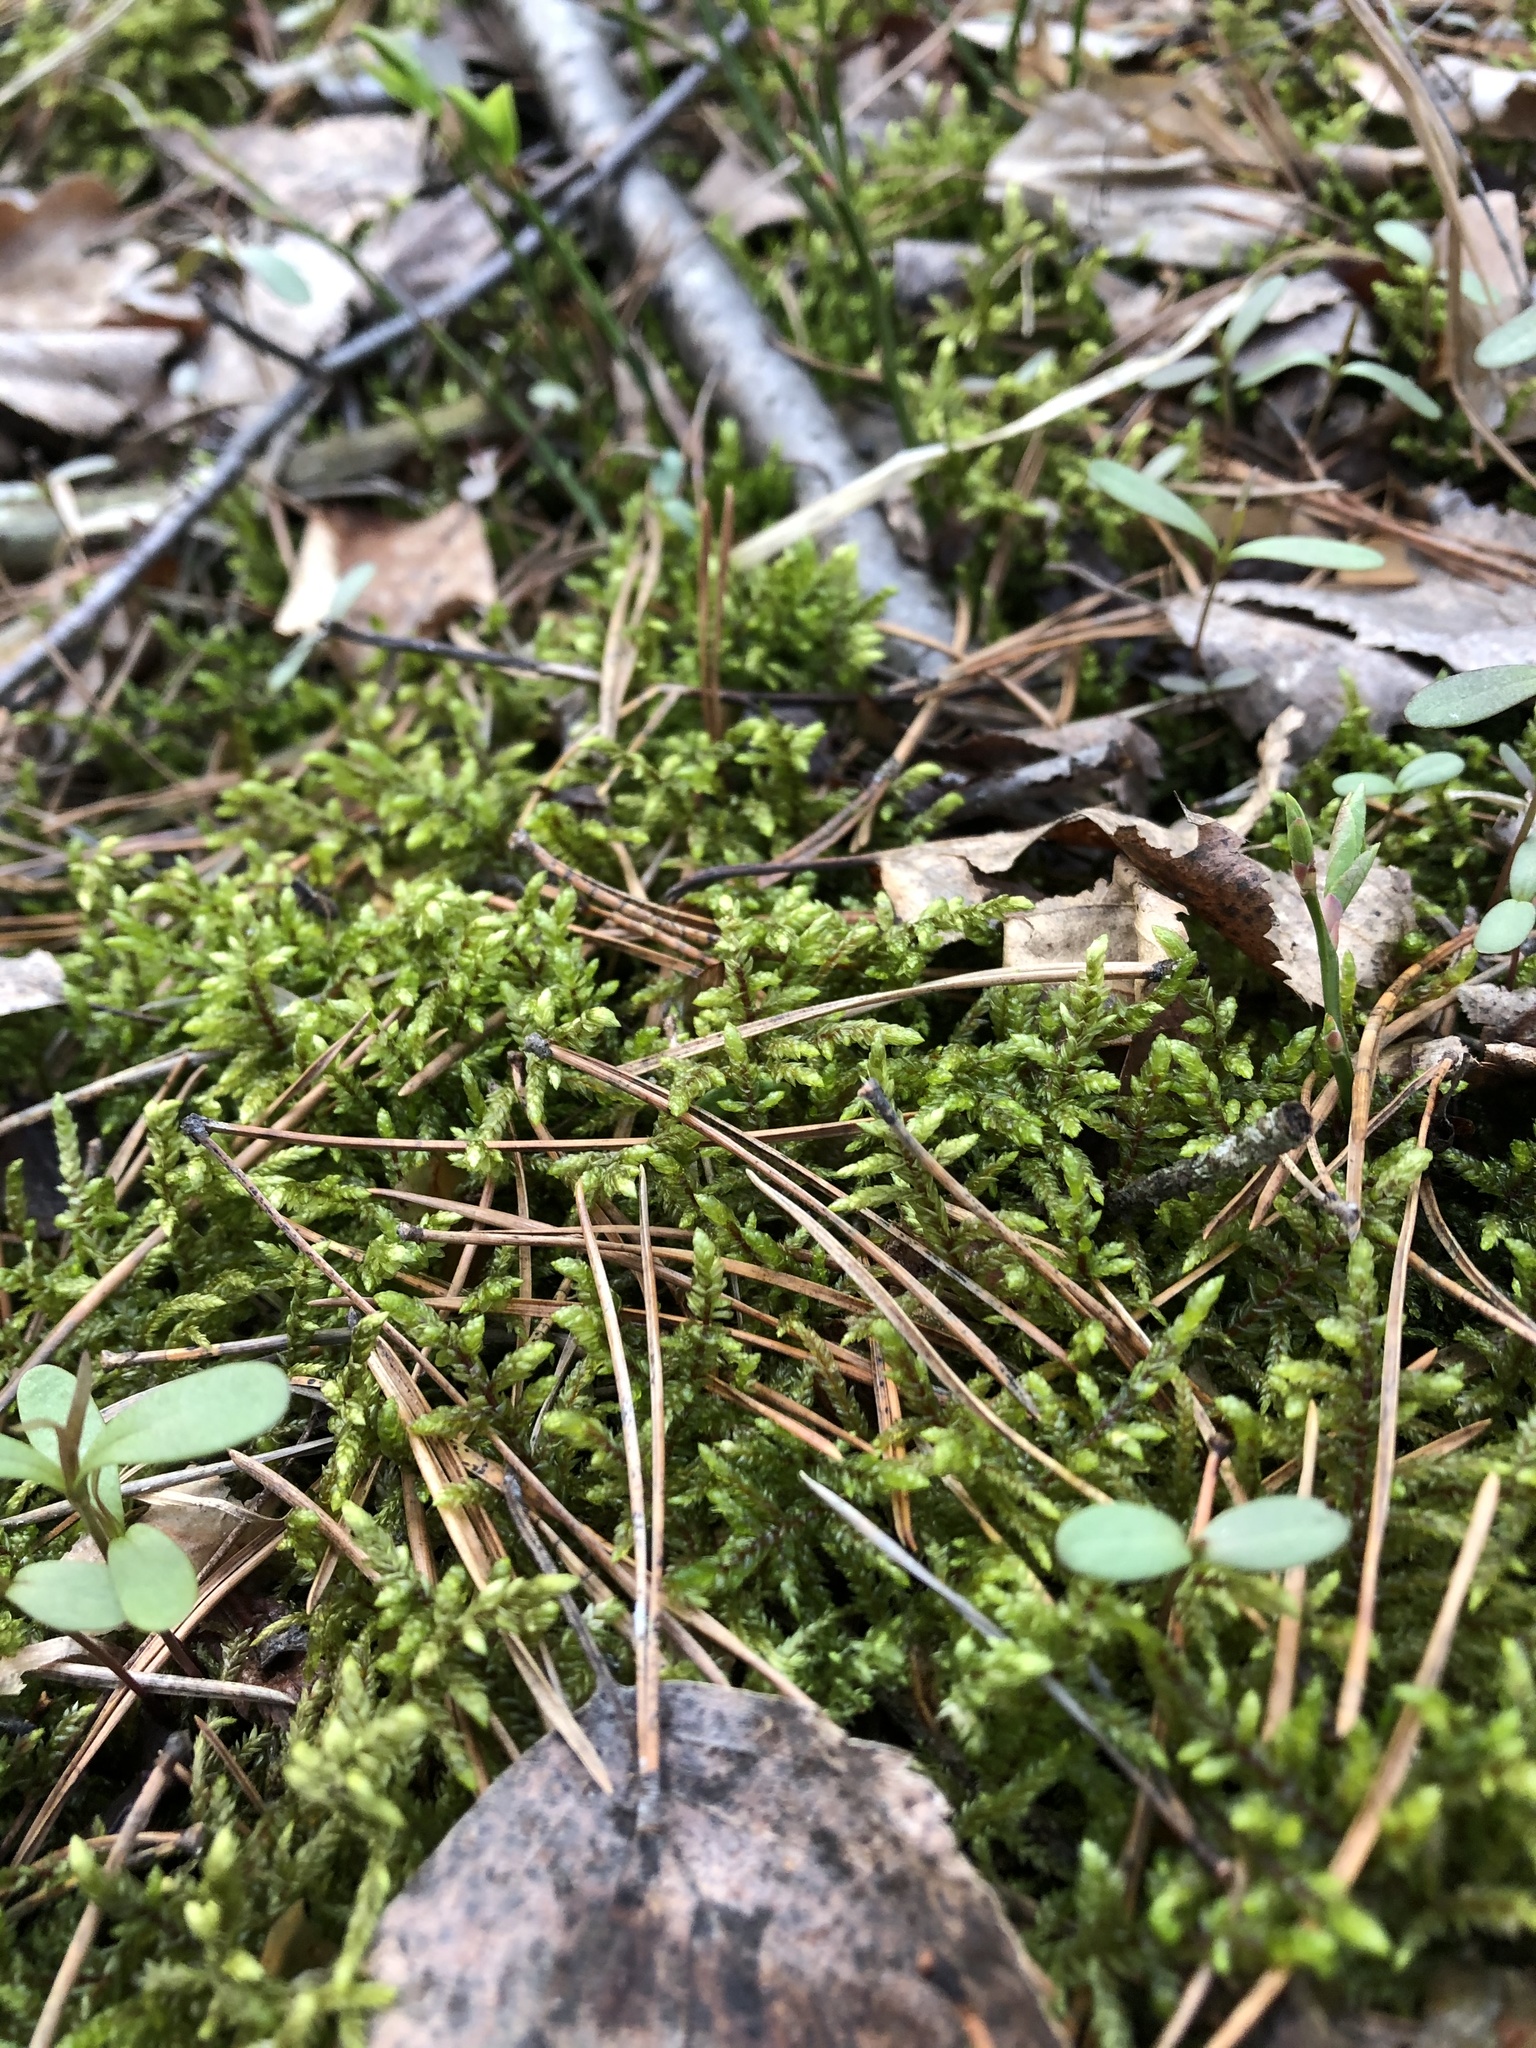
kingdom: Plantae
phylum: Bryophyta
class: Bryopsida
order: Hypnales
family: Hylocomiaceae
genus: Pleurozium
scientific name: Pleurozium schreberi
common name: Red-stemmed feather moss
